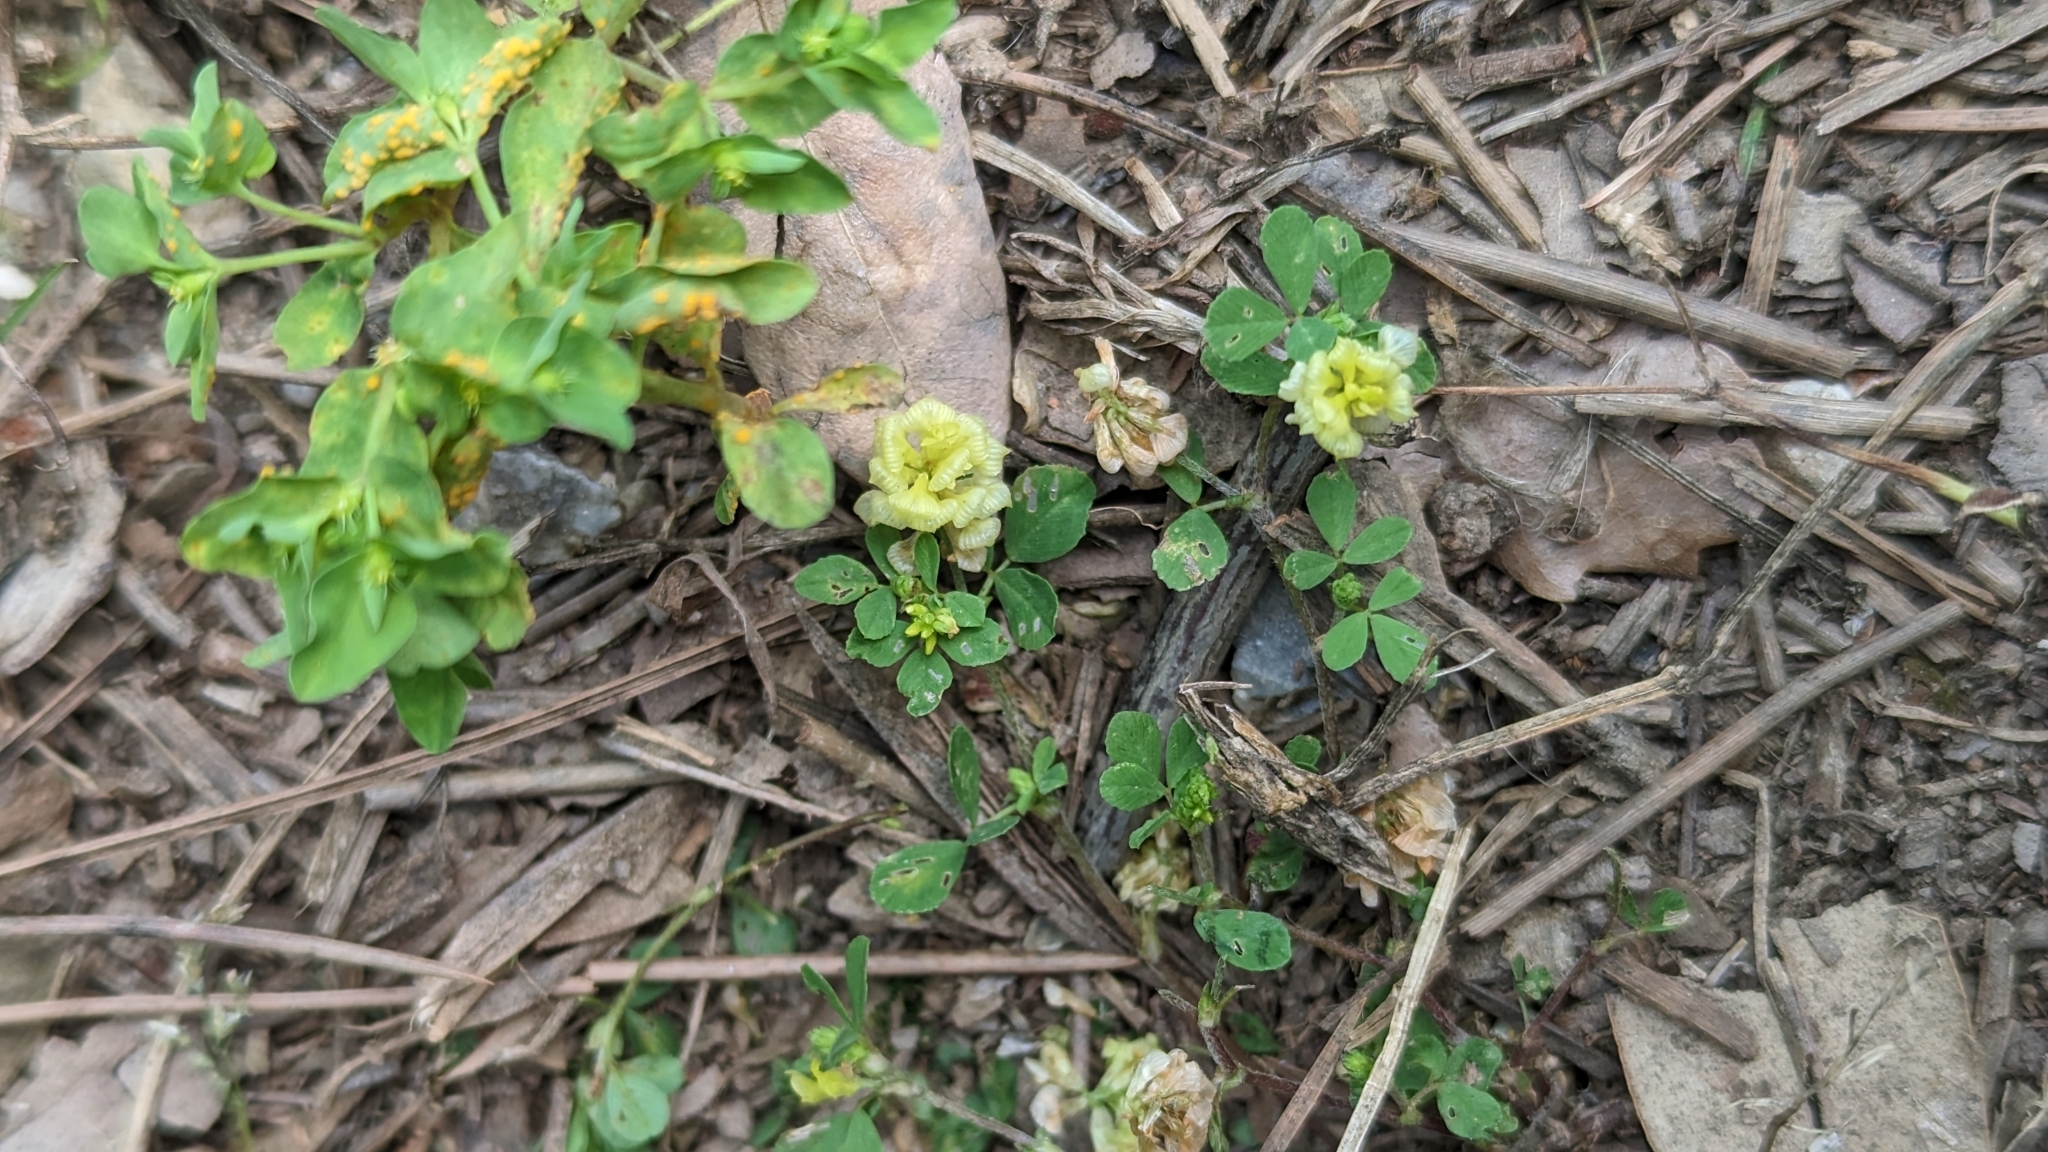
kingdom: Plantae
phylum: Tracheophyta
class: Magnoliopsida
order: Fabales
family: Fabaceae
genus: Trifolium
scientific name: Trifolium campestre
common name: Field clover
